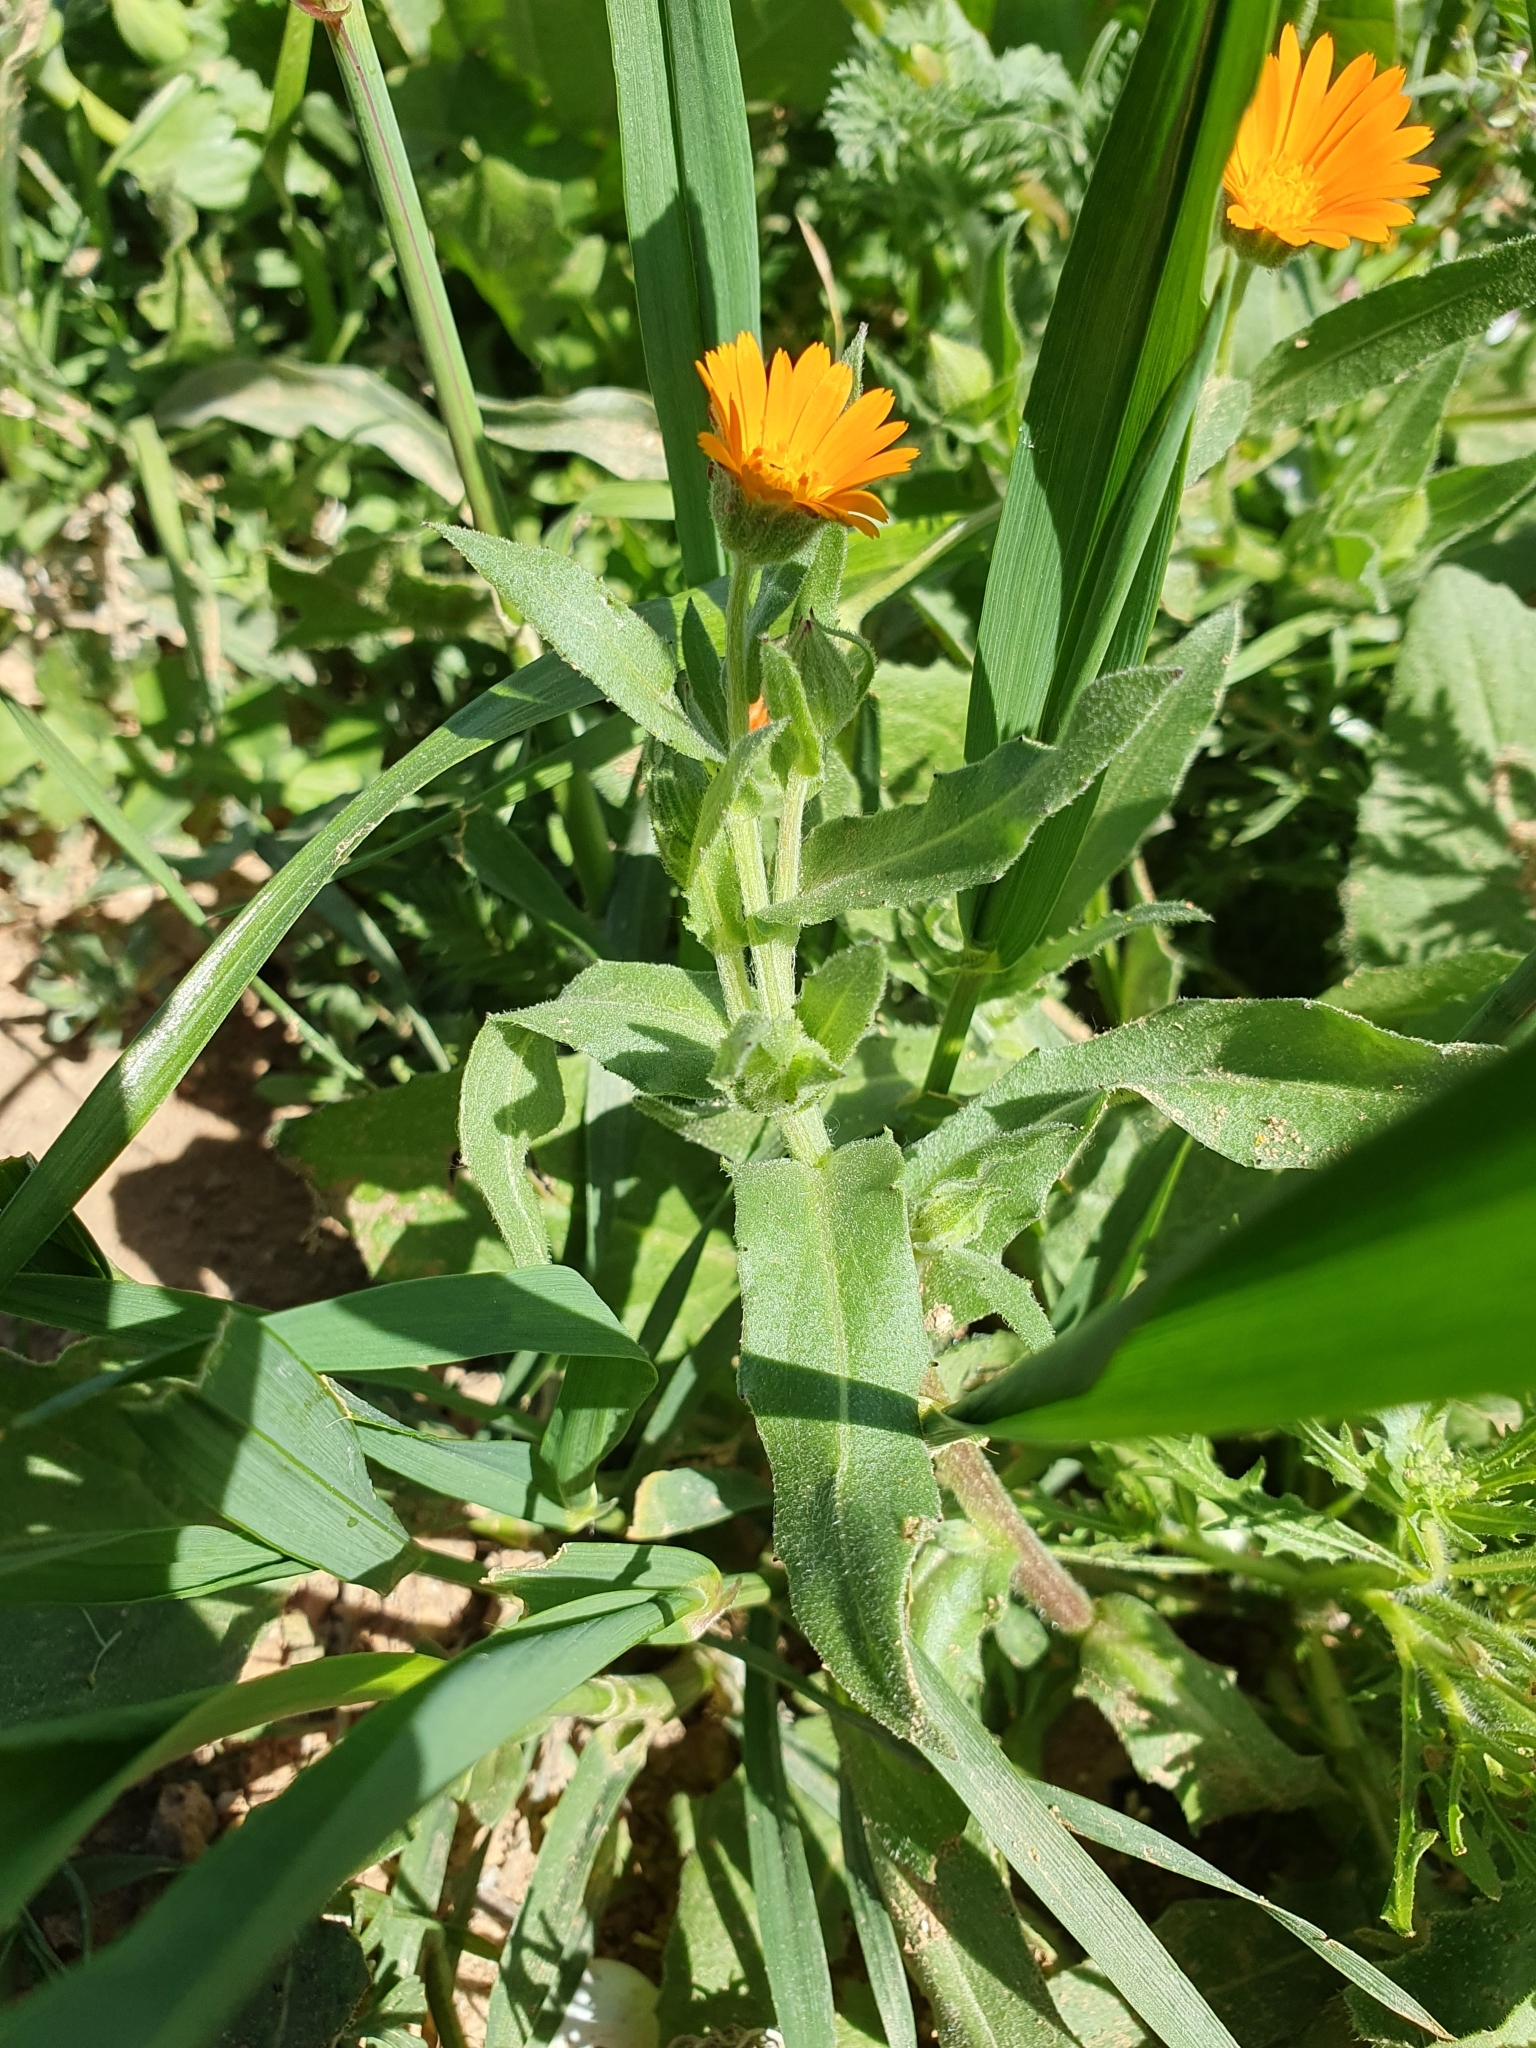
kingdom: Plantae
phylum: Tracheophyta
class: Magnoliopsida
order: Asterales
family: Asteraceae
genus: Calendula
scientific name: Calendula arvensis
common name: Field marigold
